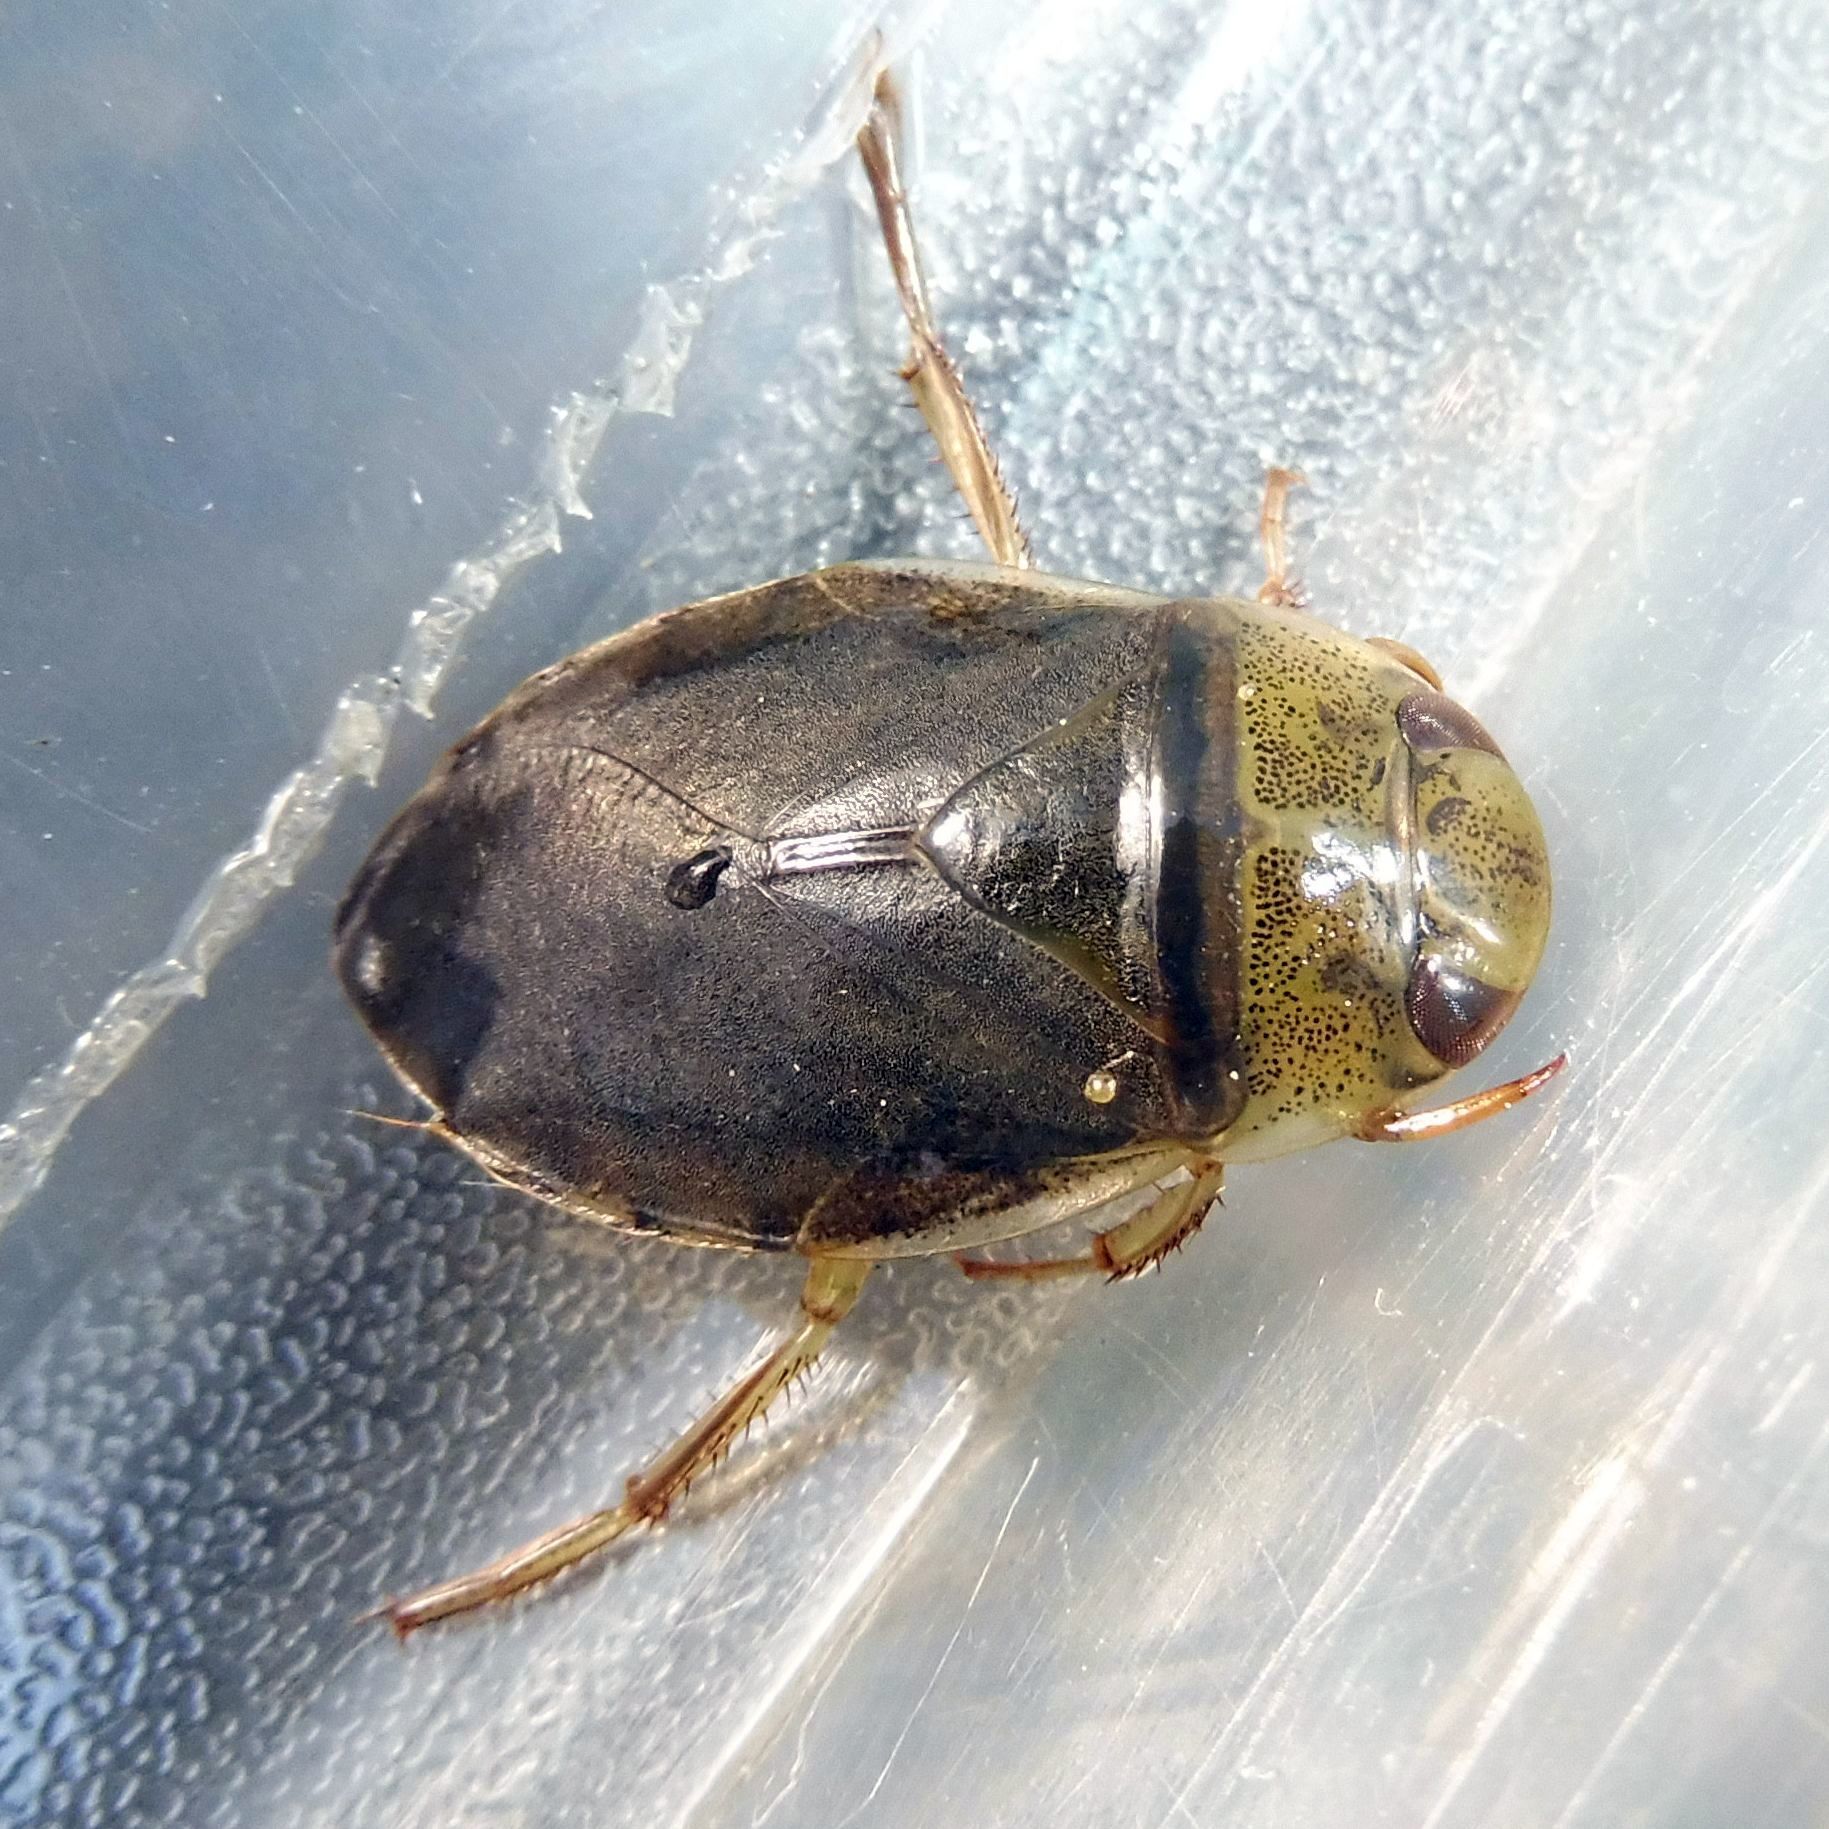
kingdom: Animalia
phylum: Arthropoda
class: Insecta
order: Hemiptera
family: Naucoridae
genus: Ilyocoris
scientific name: Ilyocoris cimicoides
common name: Saucer bugs
